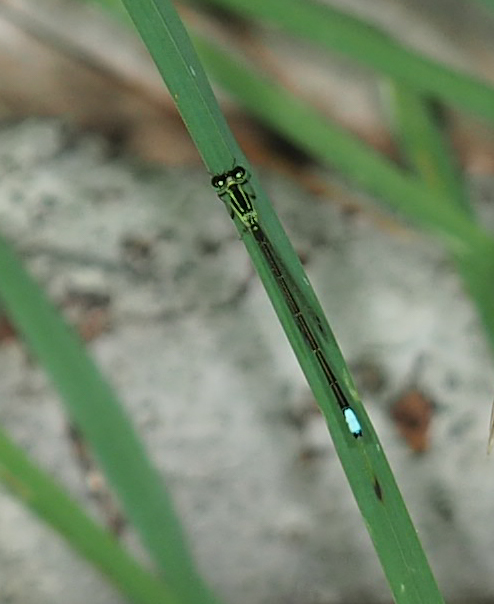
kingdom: Animalia
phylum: Arthropoda
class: Insecta
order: Odonata
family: Coenagrionidae
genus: Ischnura
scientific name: Ischnura verticalis
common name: Eastern forktail
